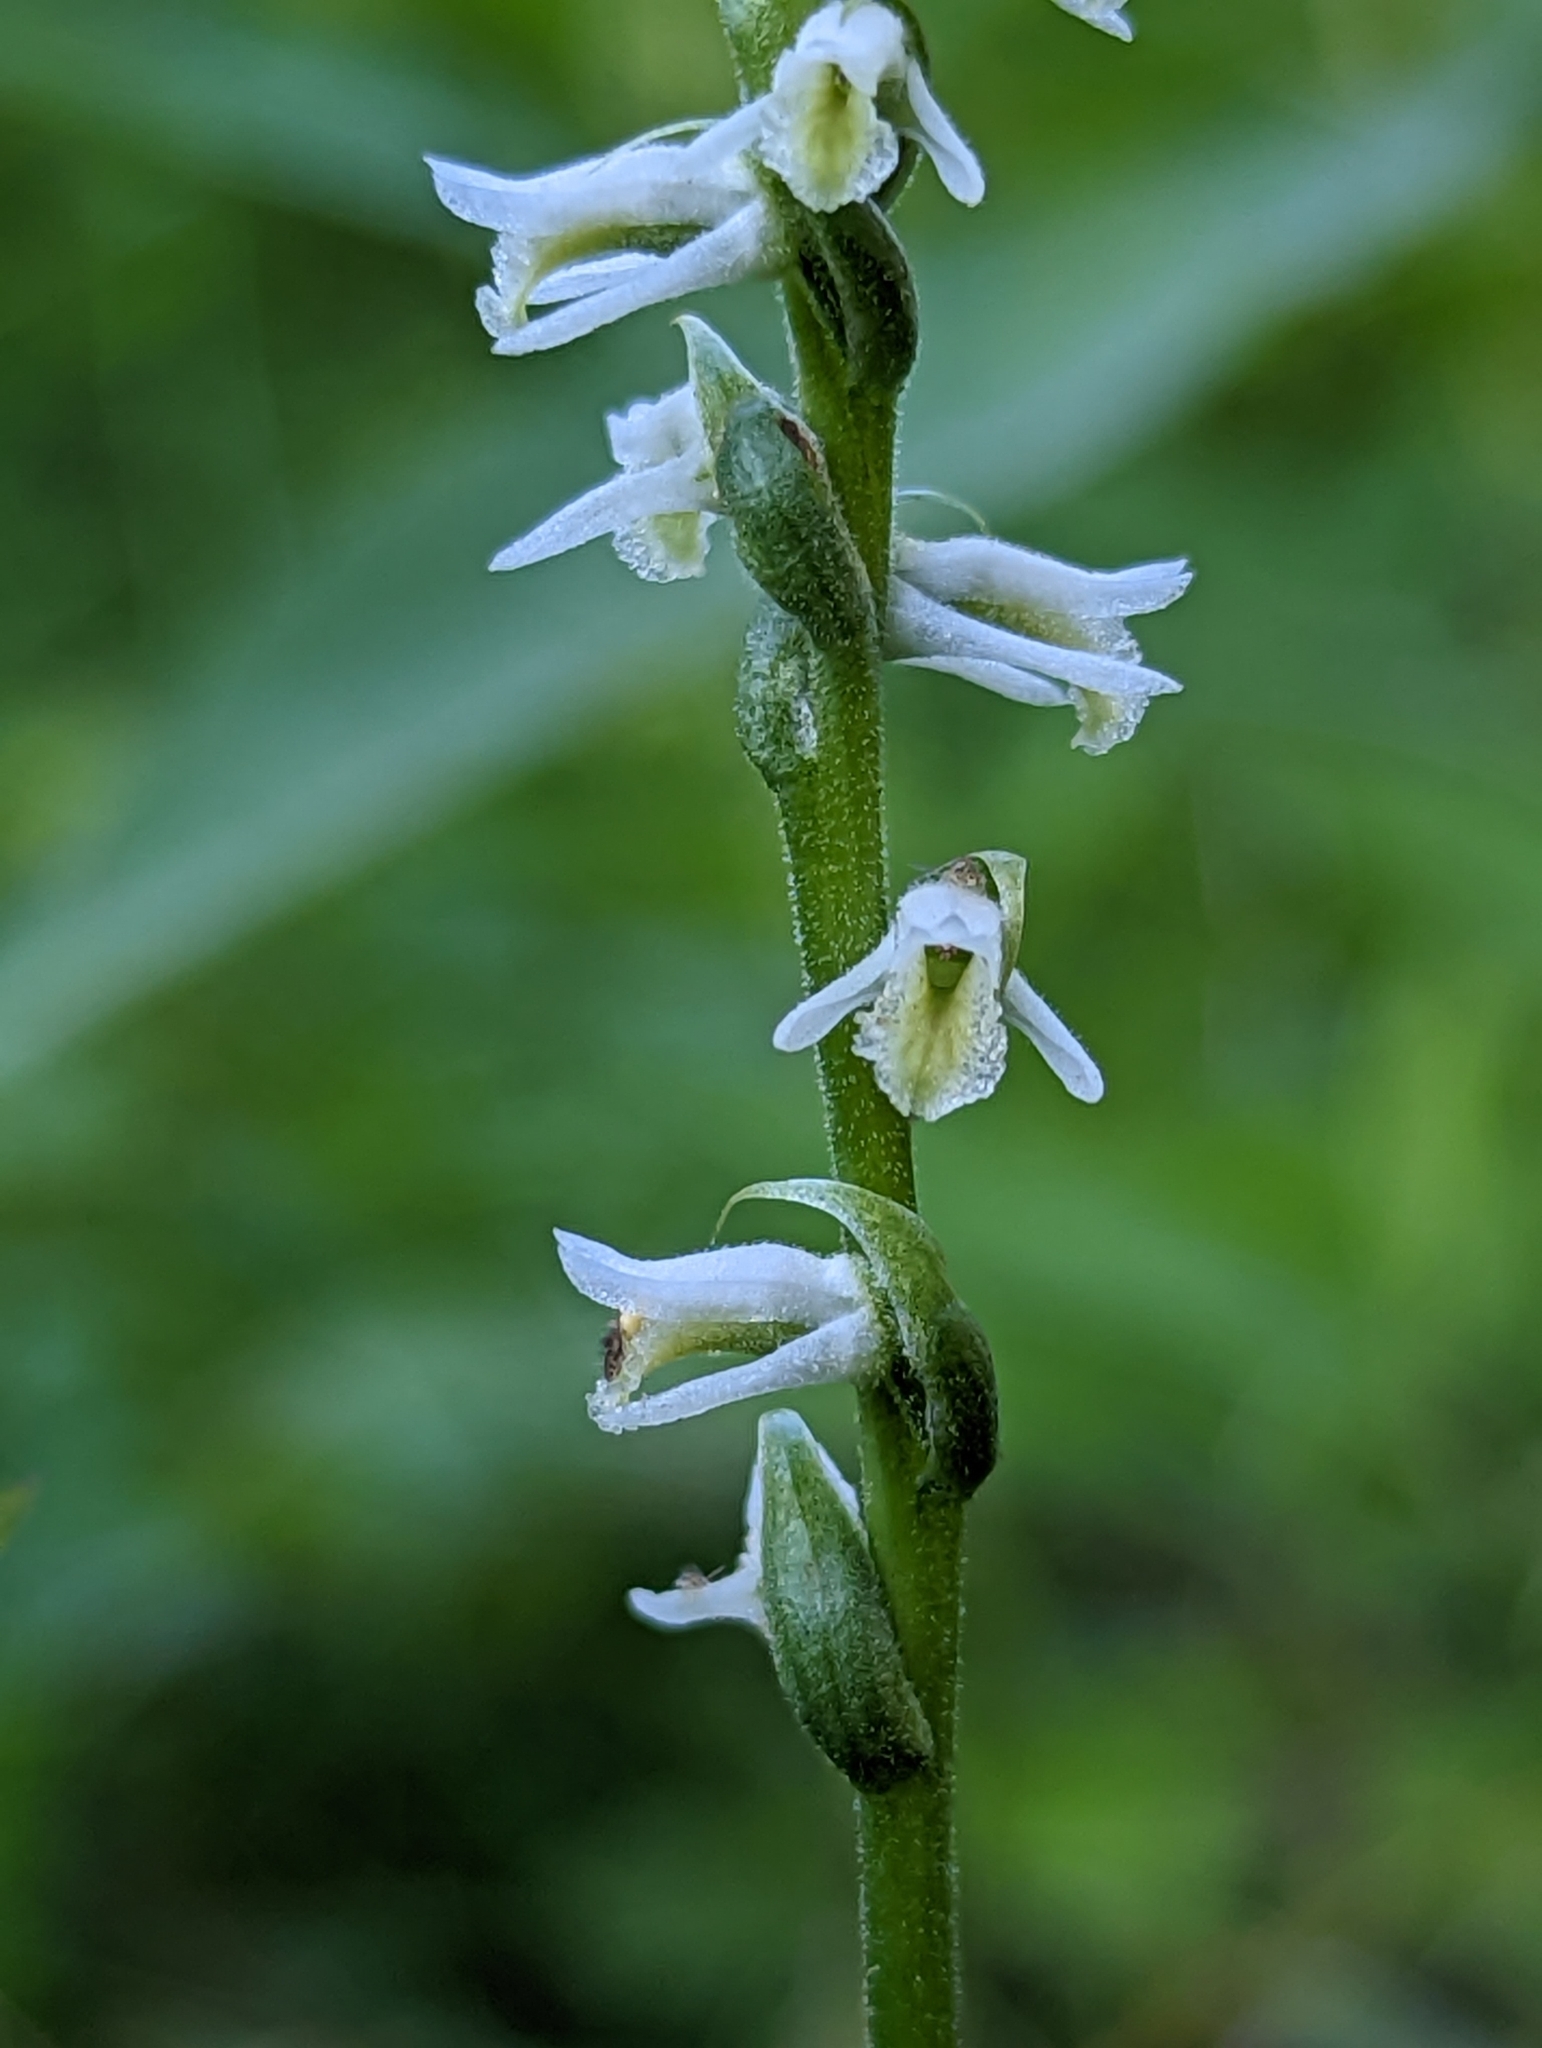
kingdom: Plantae
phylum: Tracheophyta
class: Liliopsida
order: Asparagales
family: Orchidaceae
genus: Spiranthes
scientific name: Spiranthes vernalis
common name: Spring ladies'-tresses
